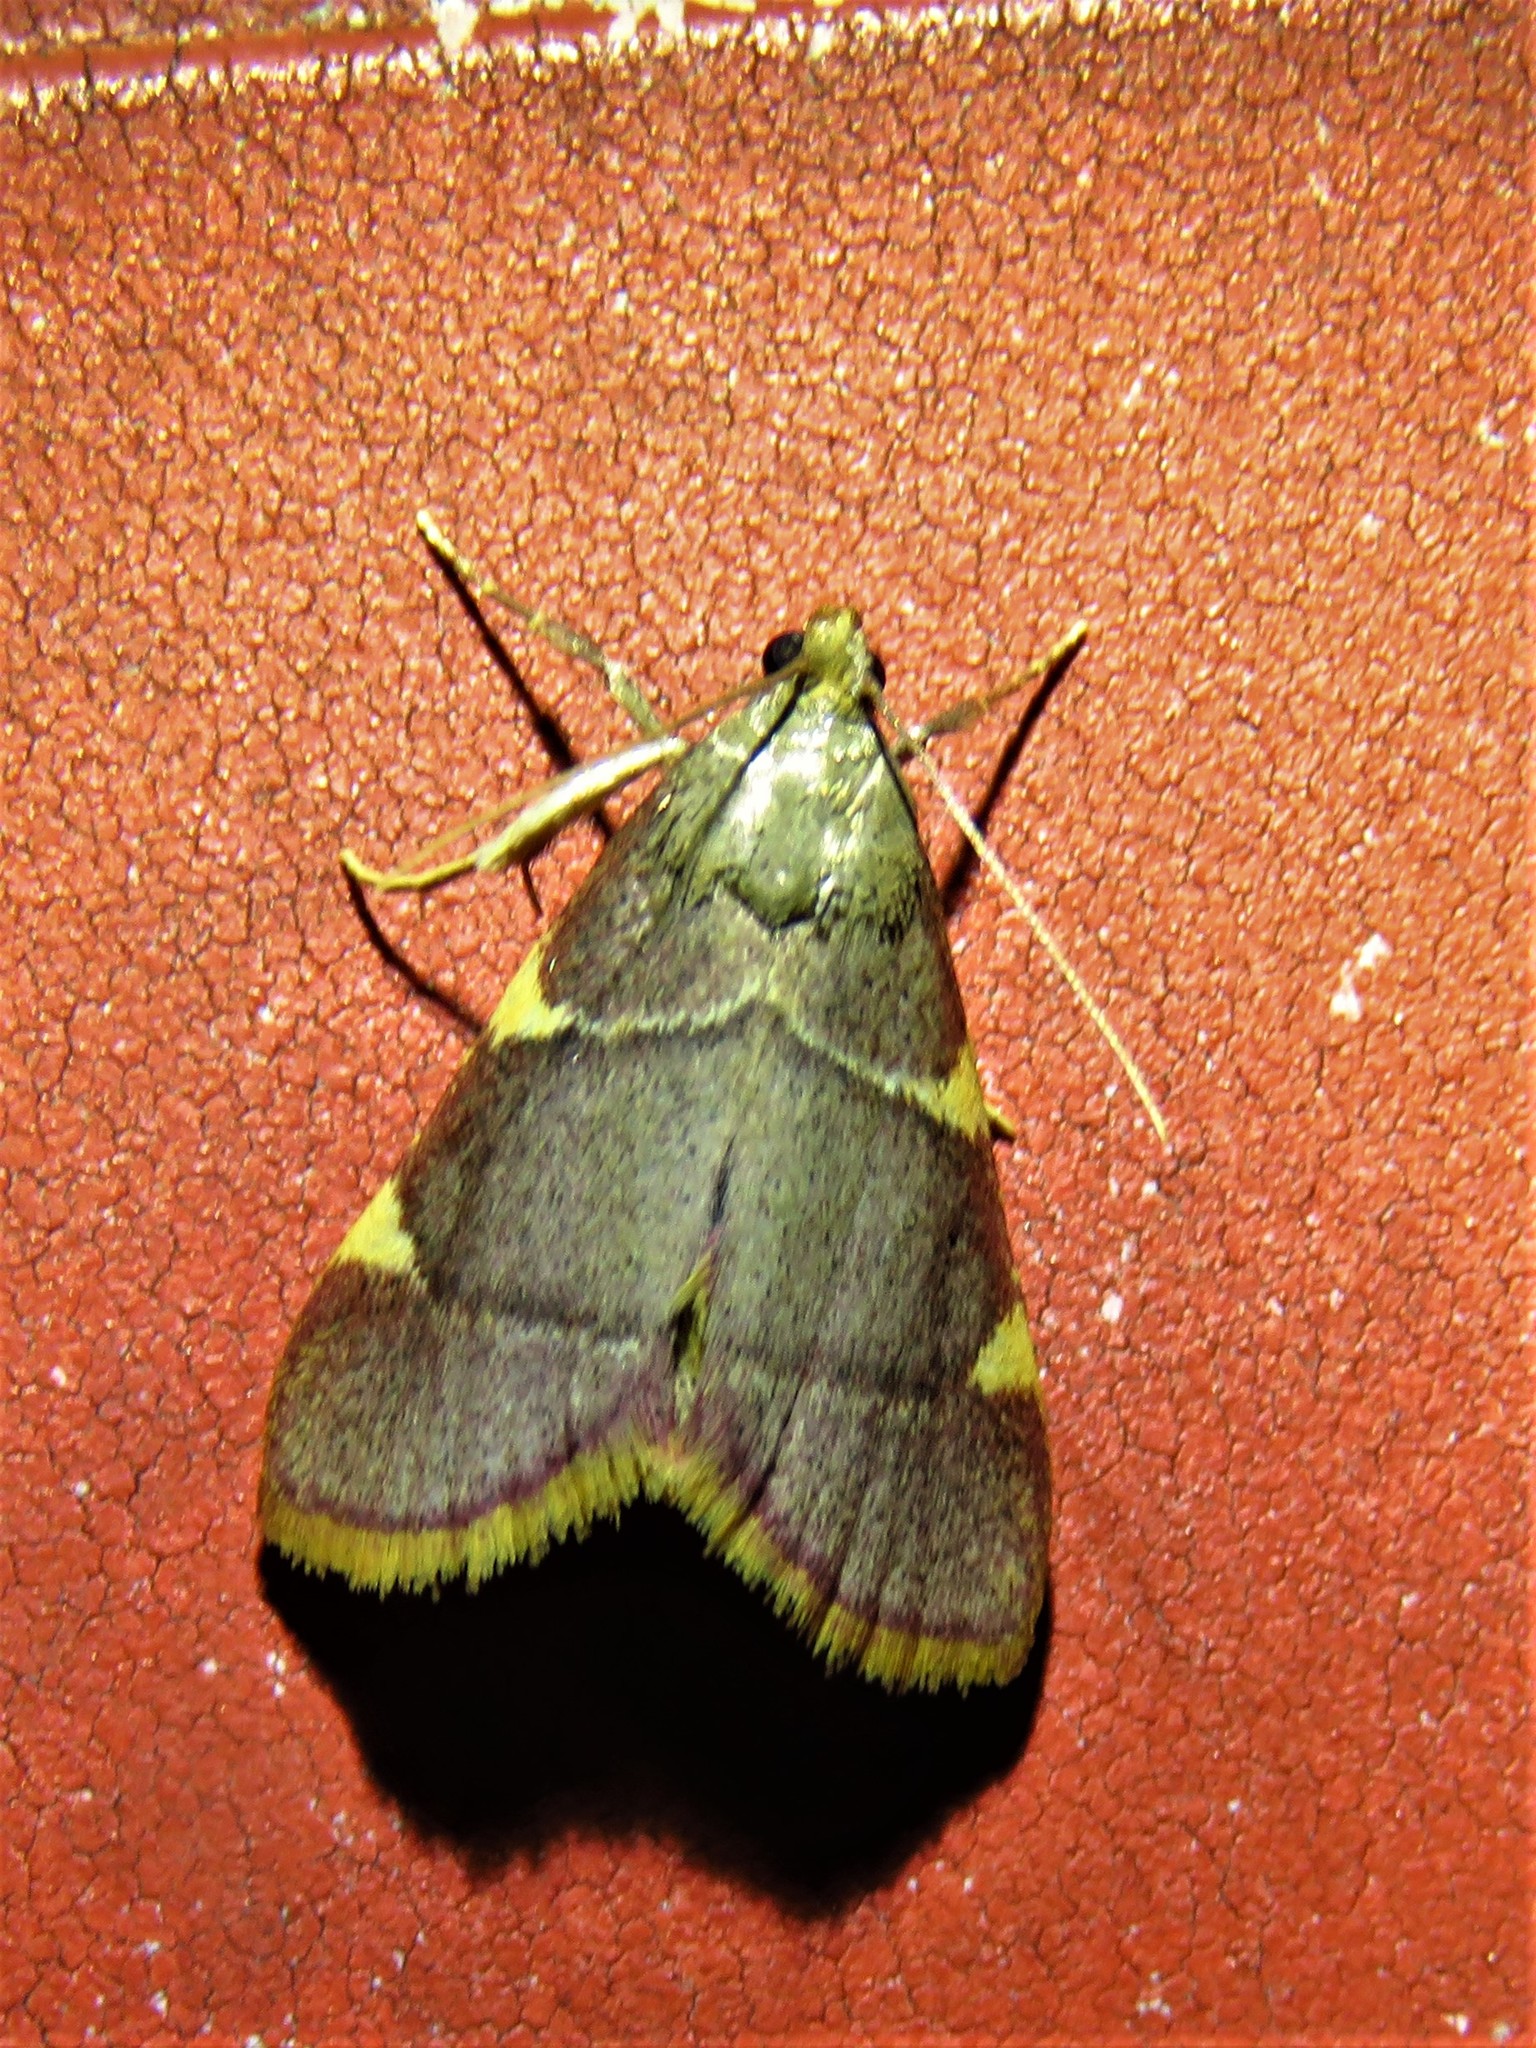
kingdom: Animalia
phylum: Arthropoda
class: Insecta
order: Lepidoptera
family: Pyralidae
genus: Hypsopygia
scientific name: Hypsopygia olinalis
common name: Yellow-fringed dolichomia moth
